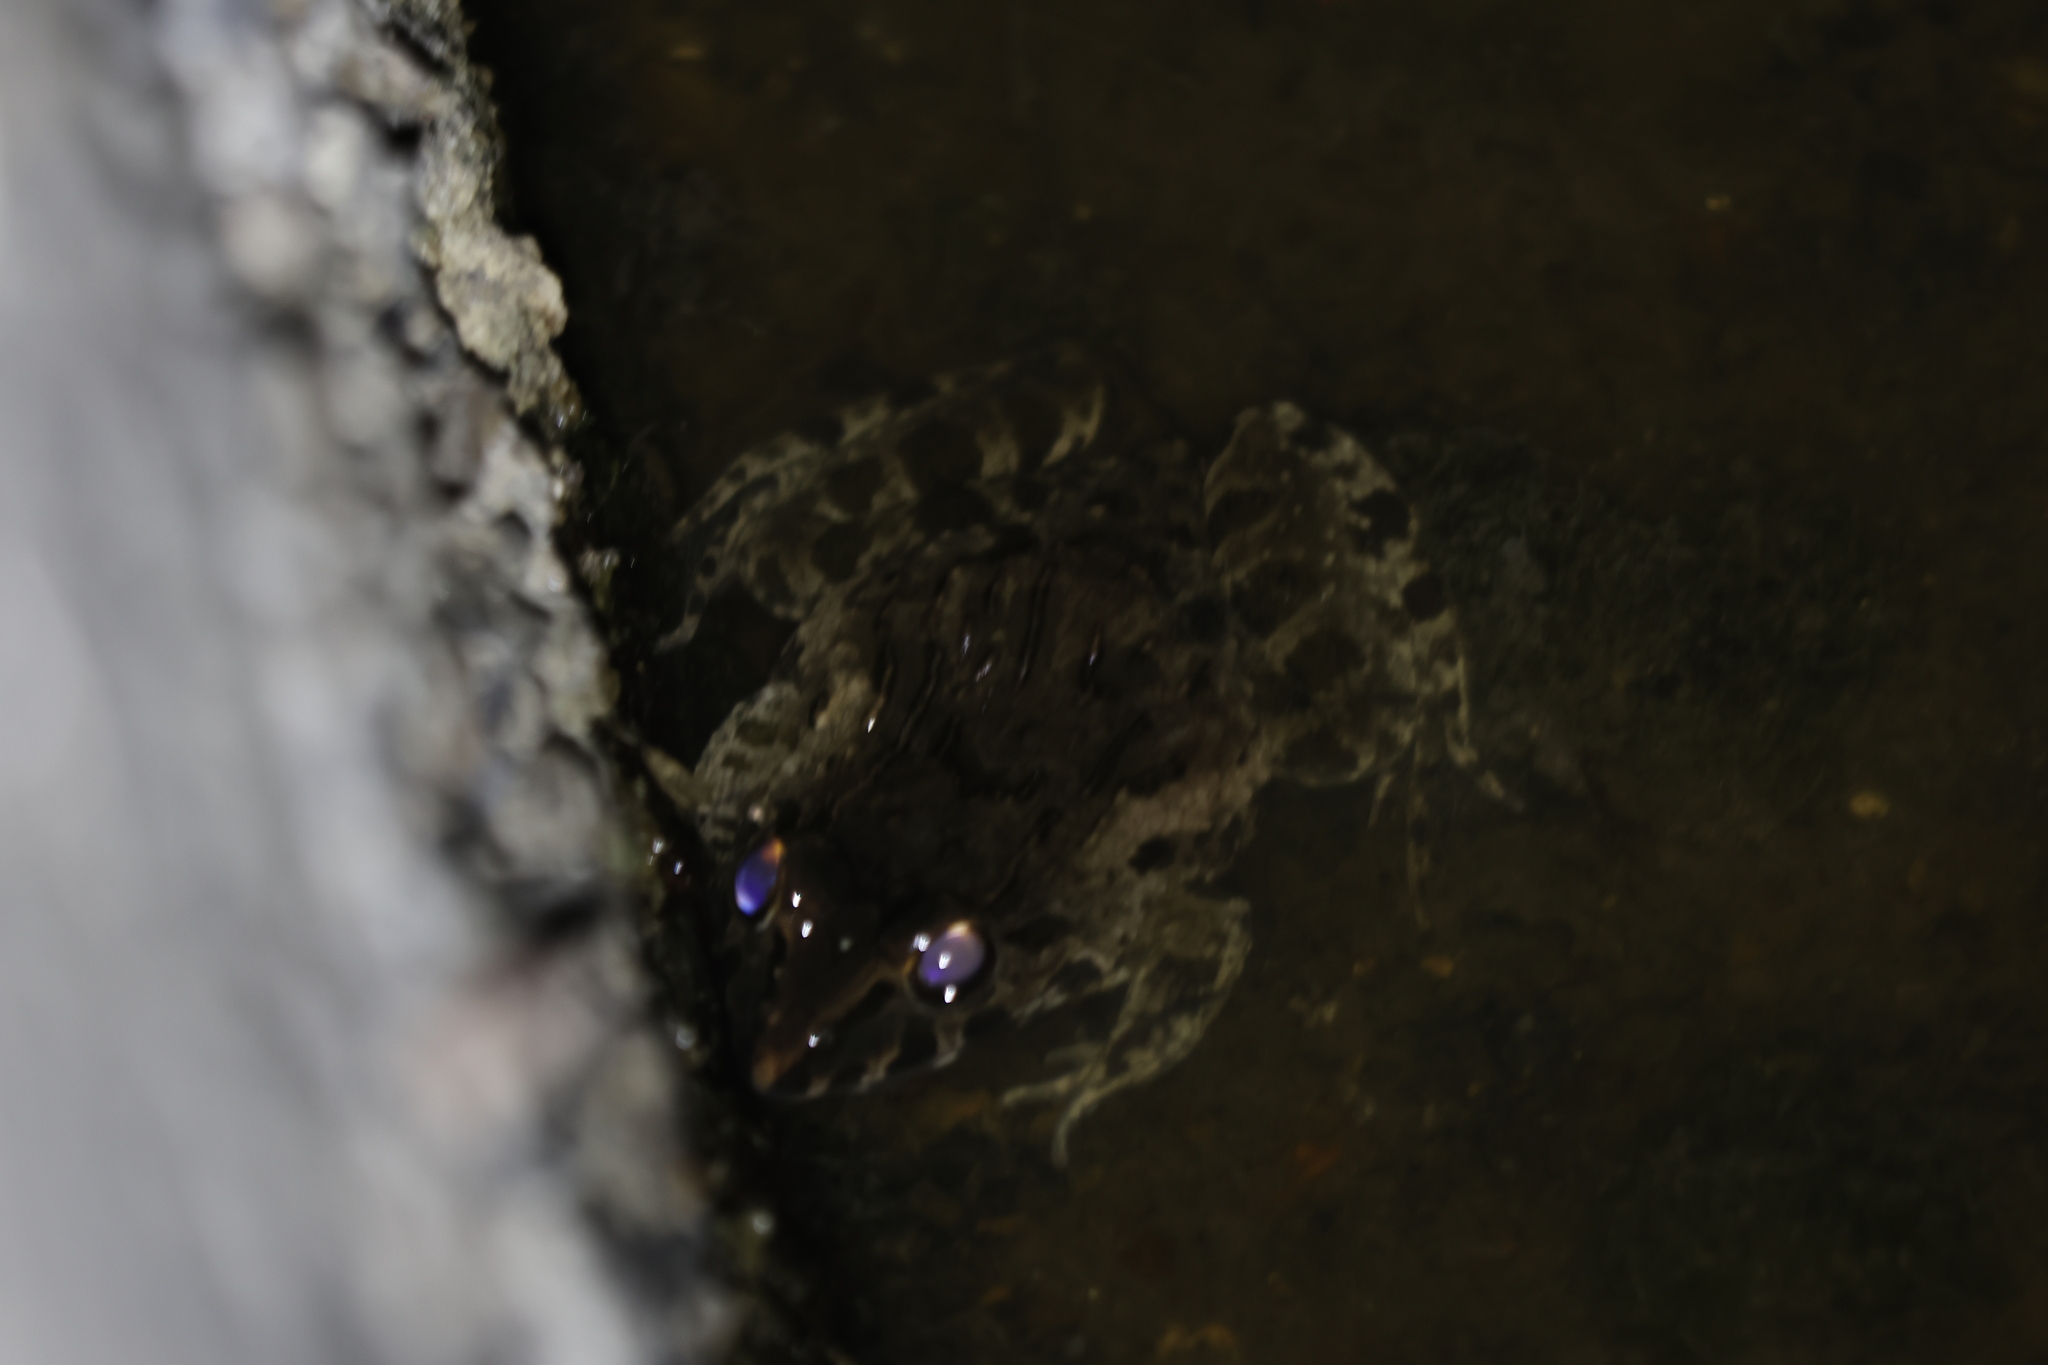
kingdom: Animalia
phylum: Chordata
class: Amphibia
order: Anura
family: Dicroglossidae
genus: Fejervarya
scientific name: Fejervarya cancrivora
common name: Crab-eating frog/mangrove frog/rice field frog/asian brackish frog
